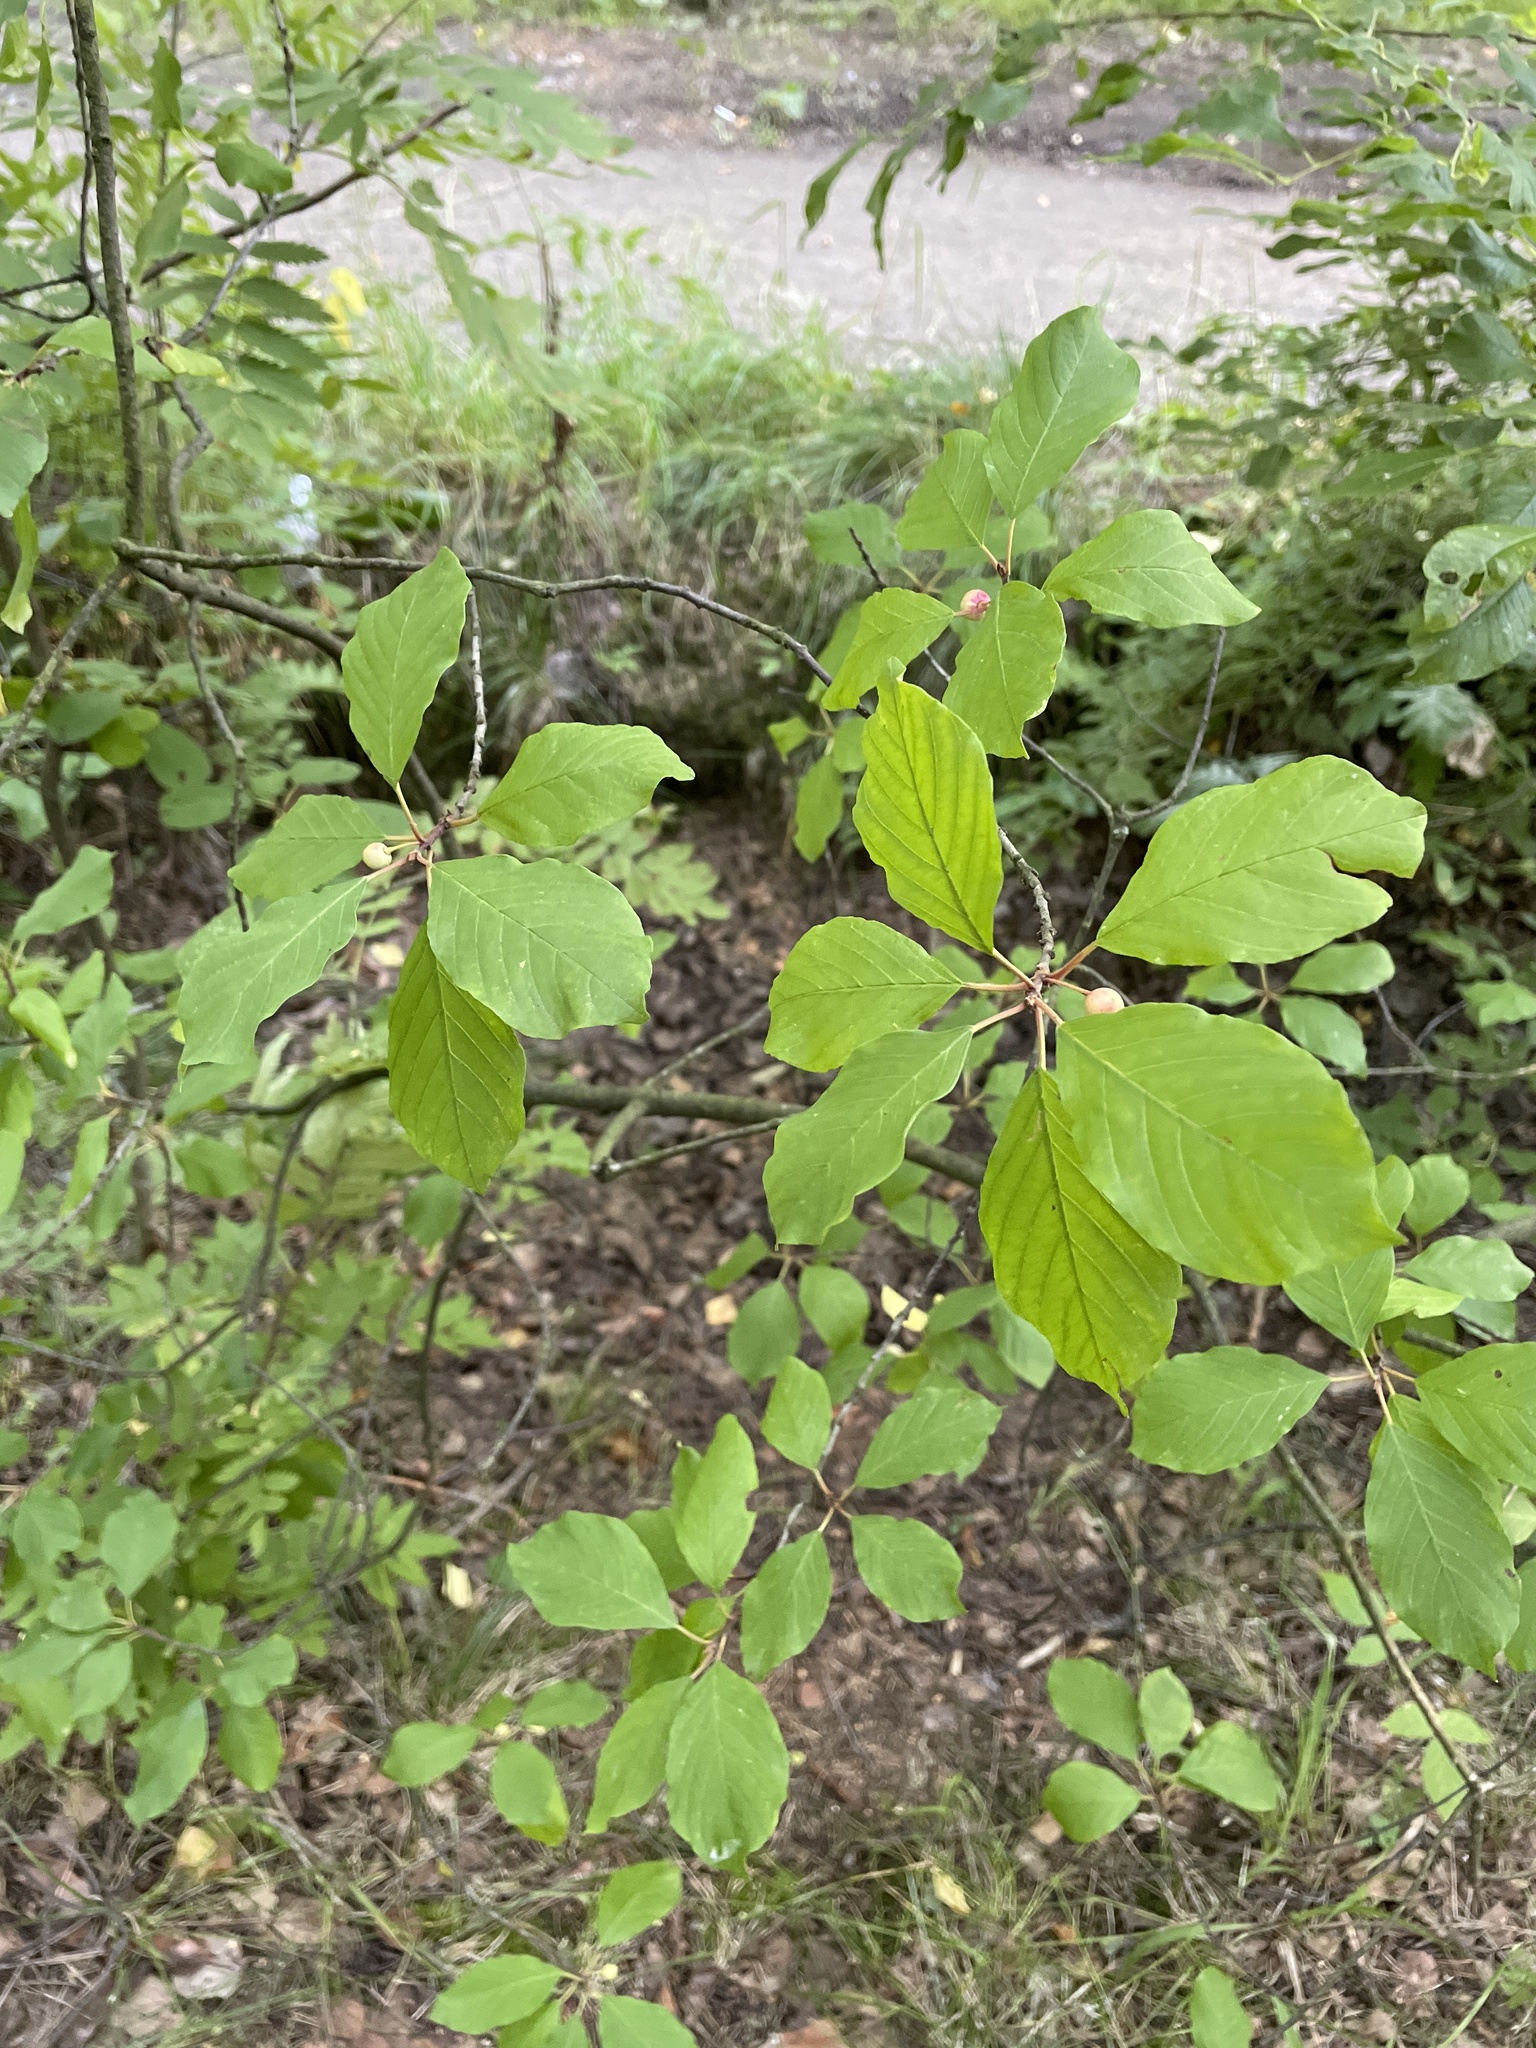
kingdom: Plantae
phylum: Tracheophyta
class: Magnoliopsida
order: Rosales
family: Rhamnaceae
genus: Frangula
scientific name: Frangula alnus
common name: Alder buckthorn
